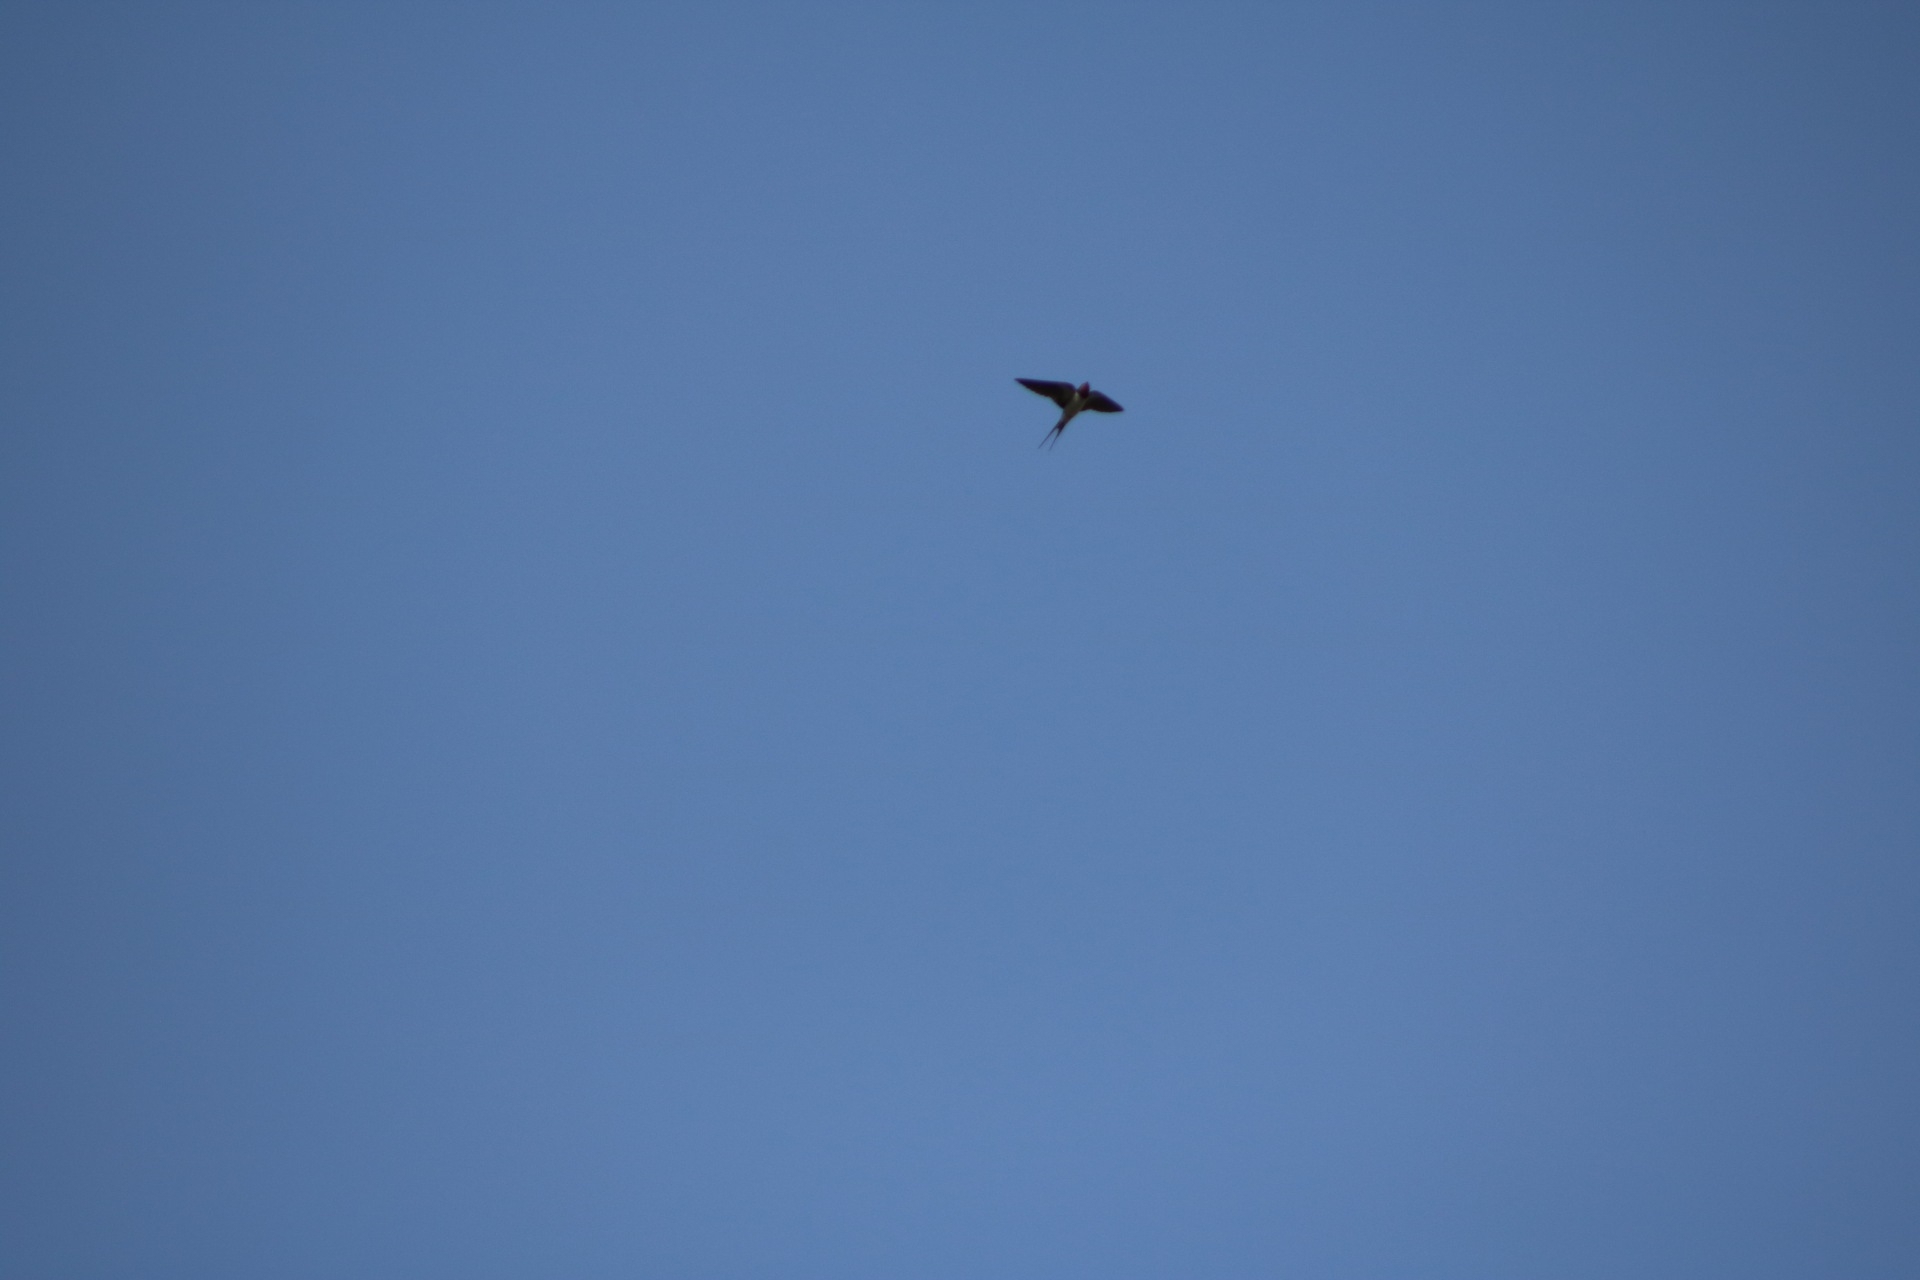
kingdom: Animalia
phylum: Chordata
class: Aves
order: Passeriformes
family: Hirundinidae
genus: Hirundo
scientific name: Hirundo rustica
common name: Barn swallow
